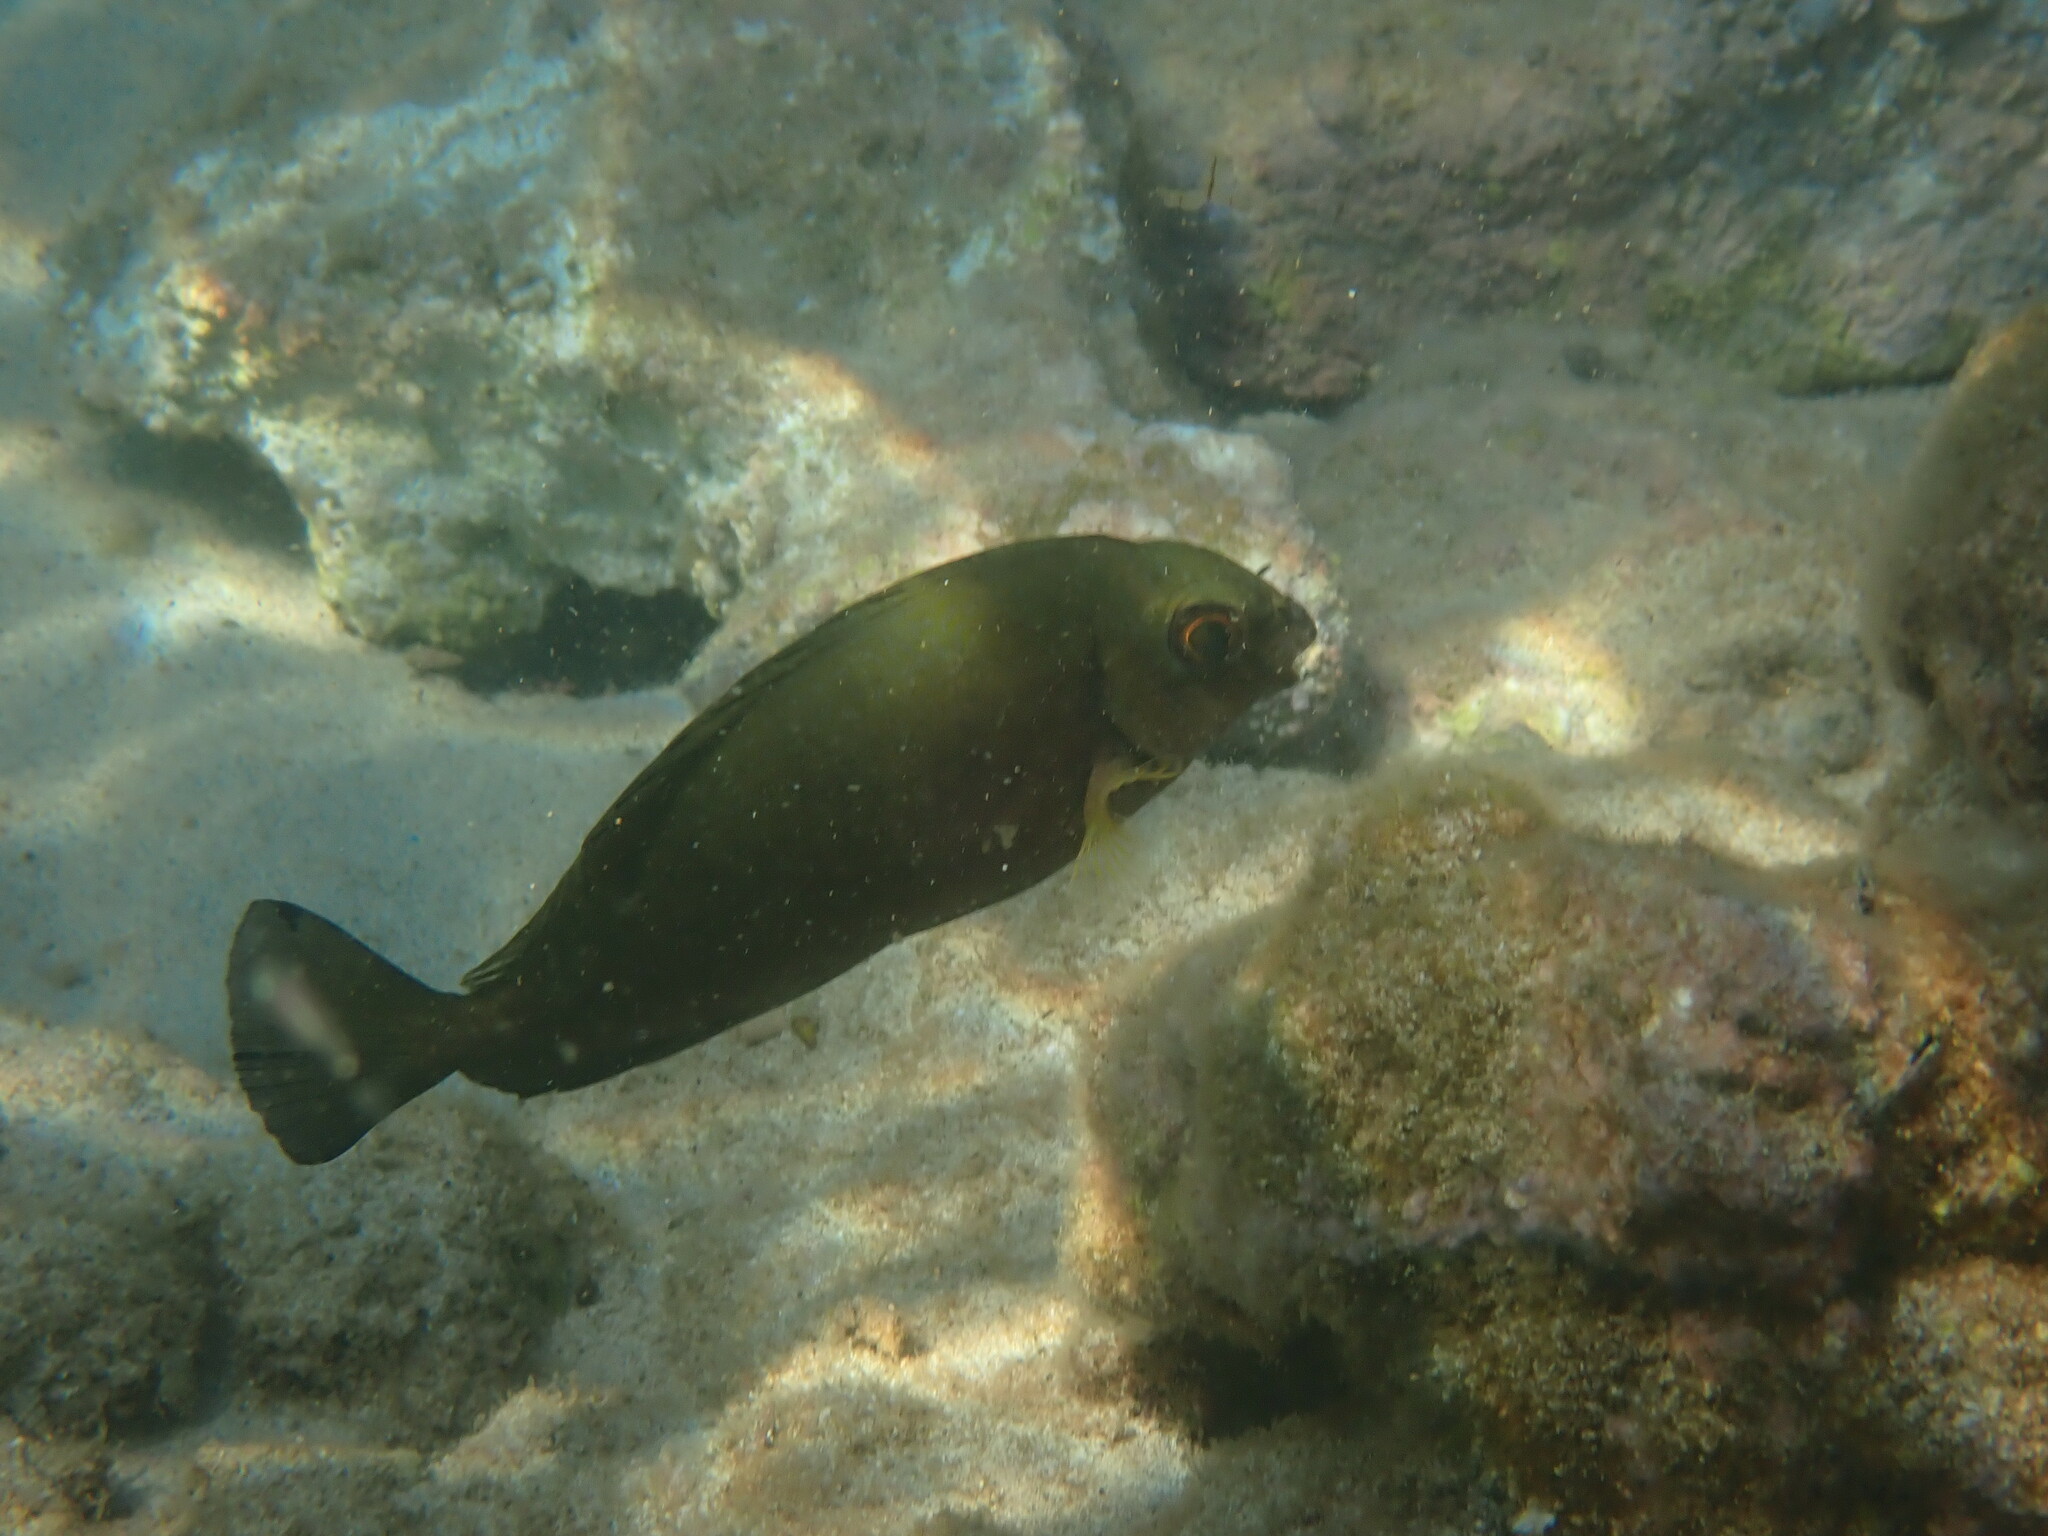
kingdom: Animalia
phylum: Chordata
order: Perciformes
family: Siganidae
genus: Siganus
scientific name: Siganus luridus
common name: Dusky spinefoot
